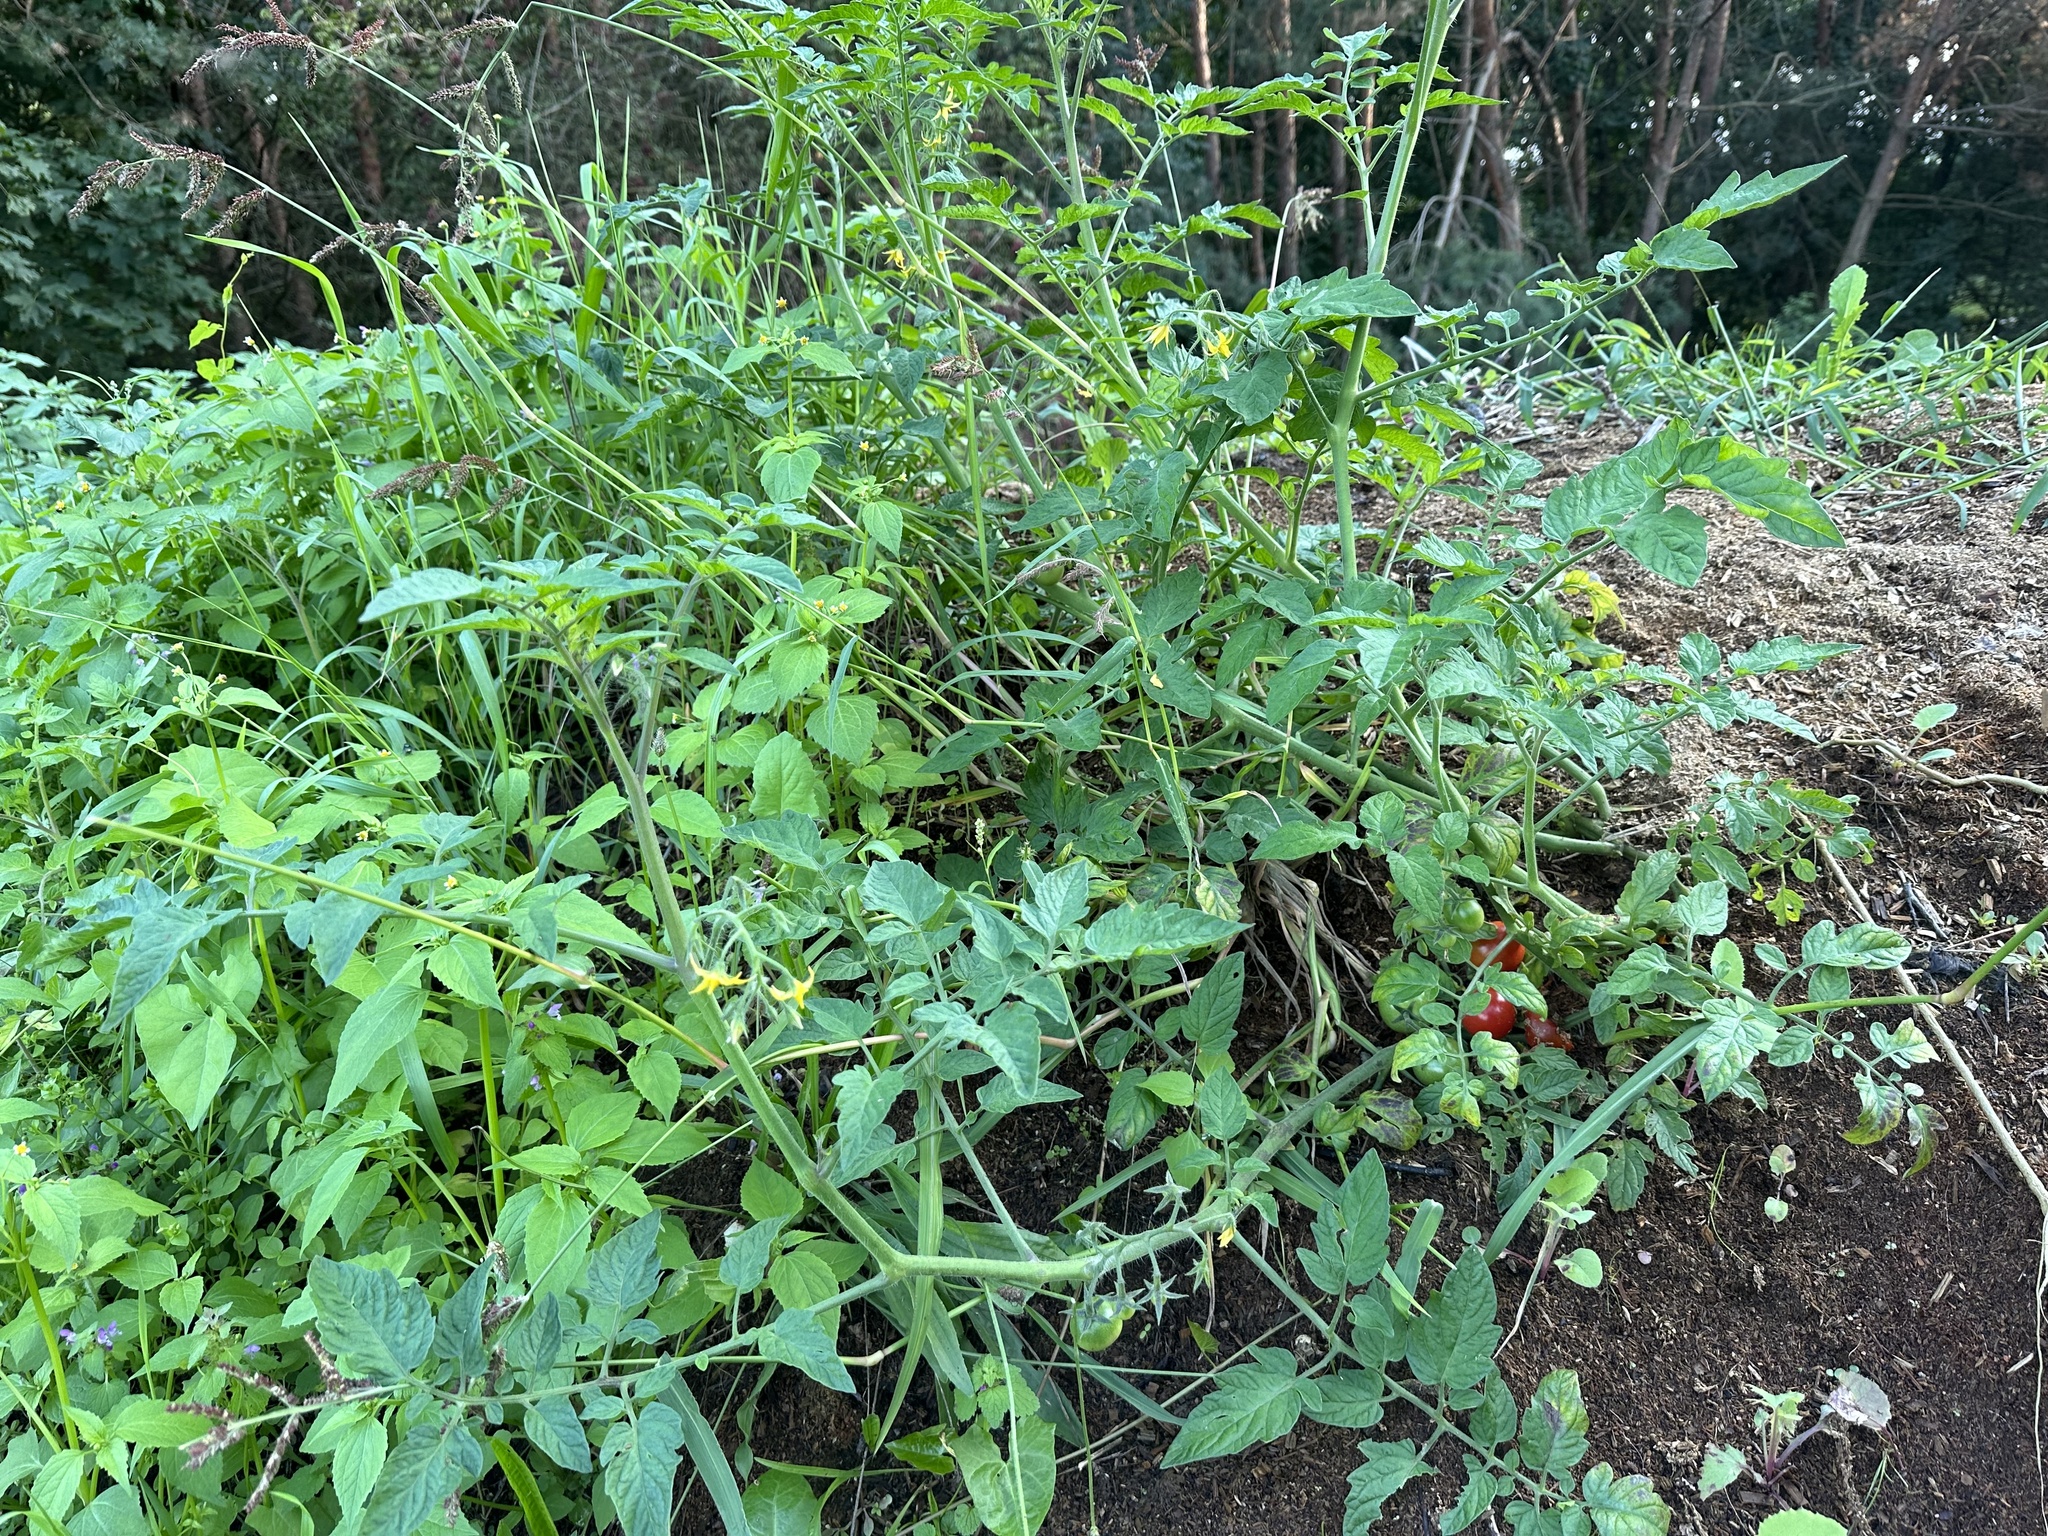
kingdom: Plantae
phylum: Tracheophyta
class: Magnoliopsida
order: Solanales
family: Solanaceae
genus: Solanum
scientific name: Solanum lycopersicum
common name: Garden tomato
